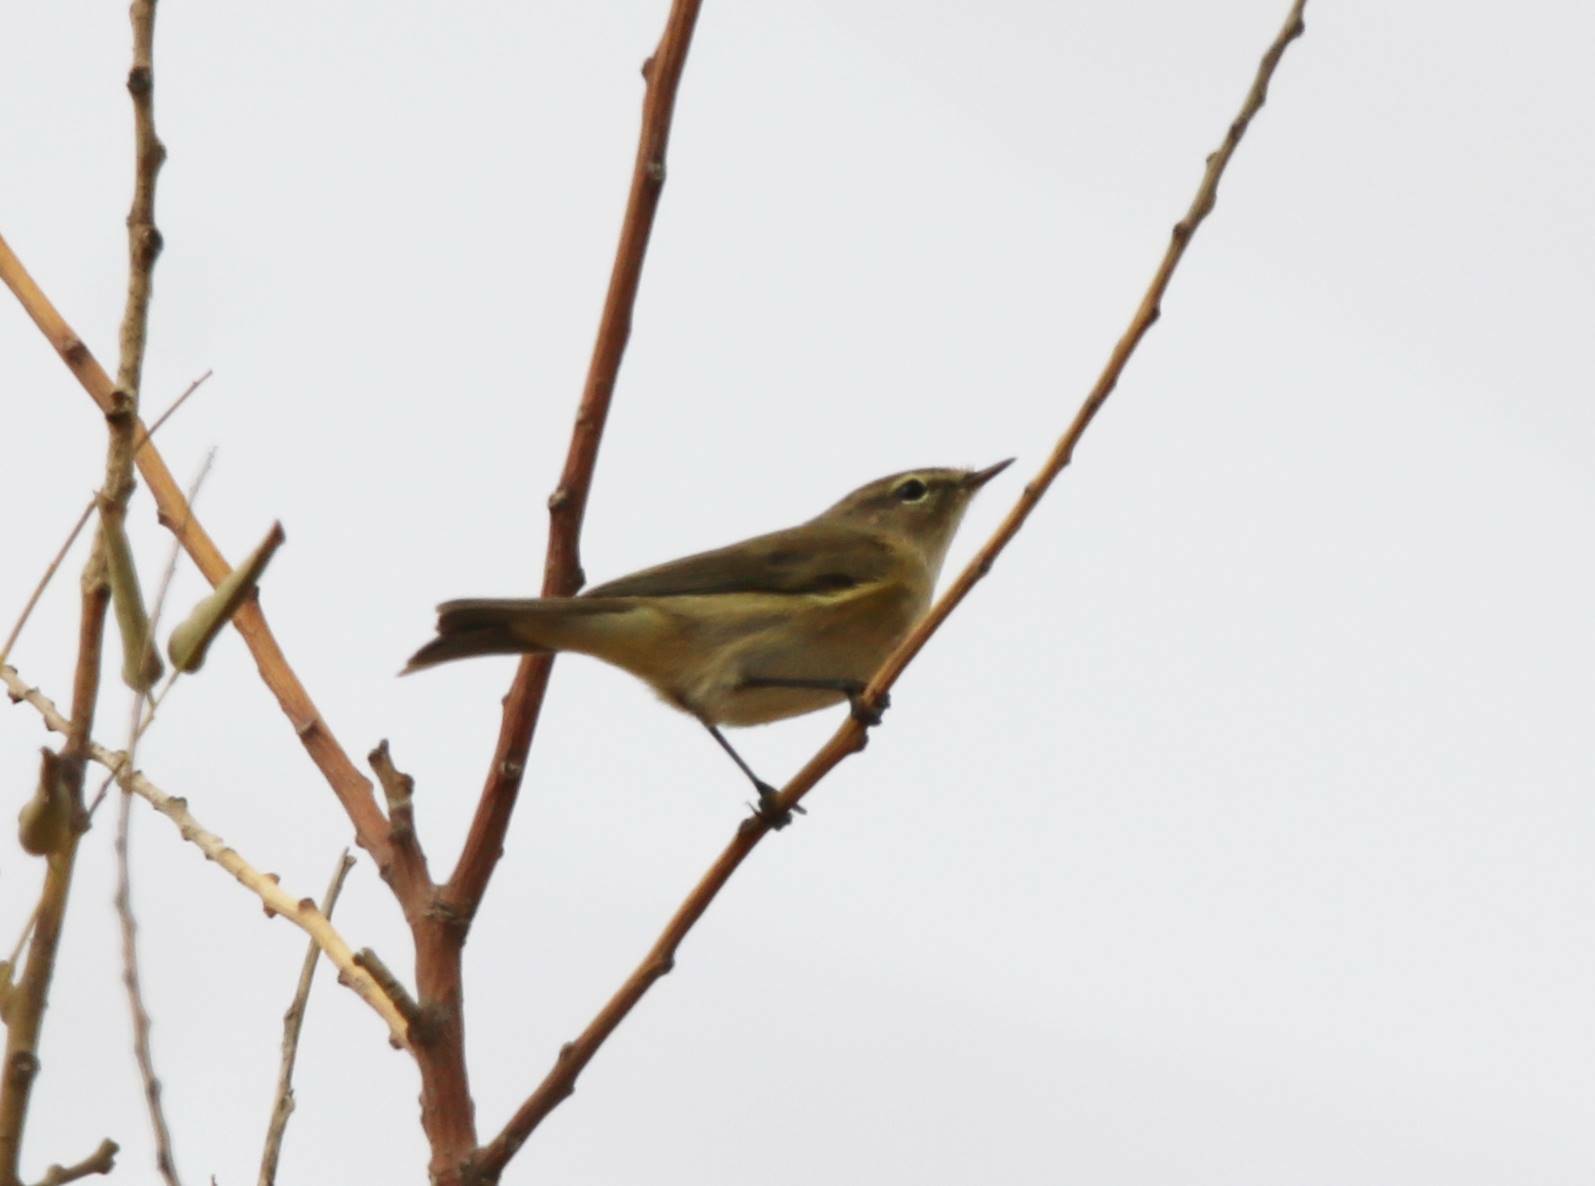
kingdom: Animalia
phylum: Chordata
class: Aves
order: Passeriformes
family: Phylloscopidae
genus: Phylloscopus
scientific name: Phylloscopus collybita
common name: Common chiffchaff
